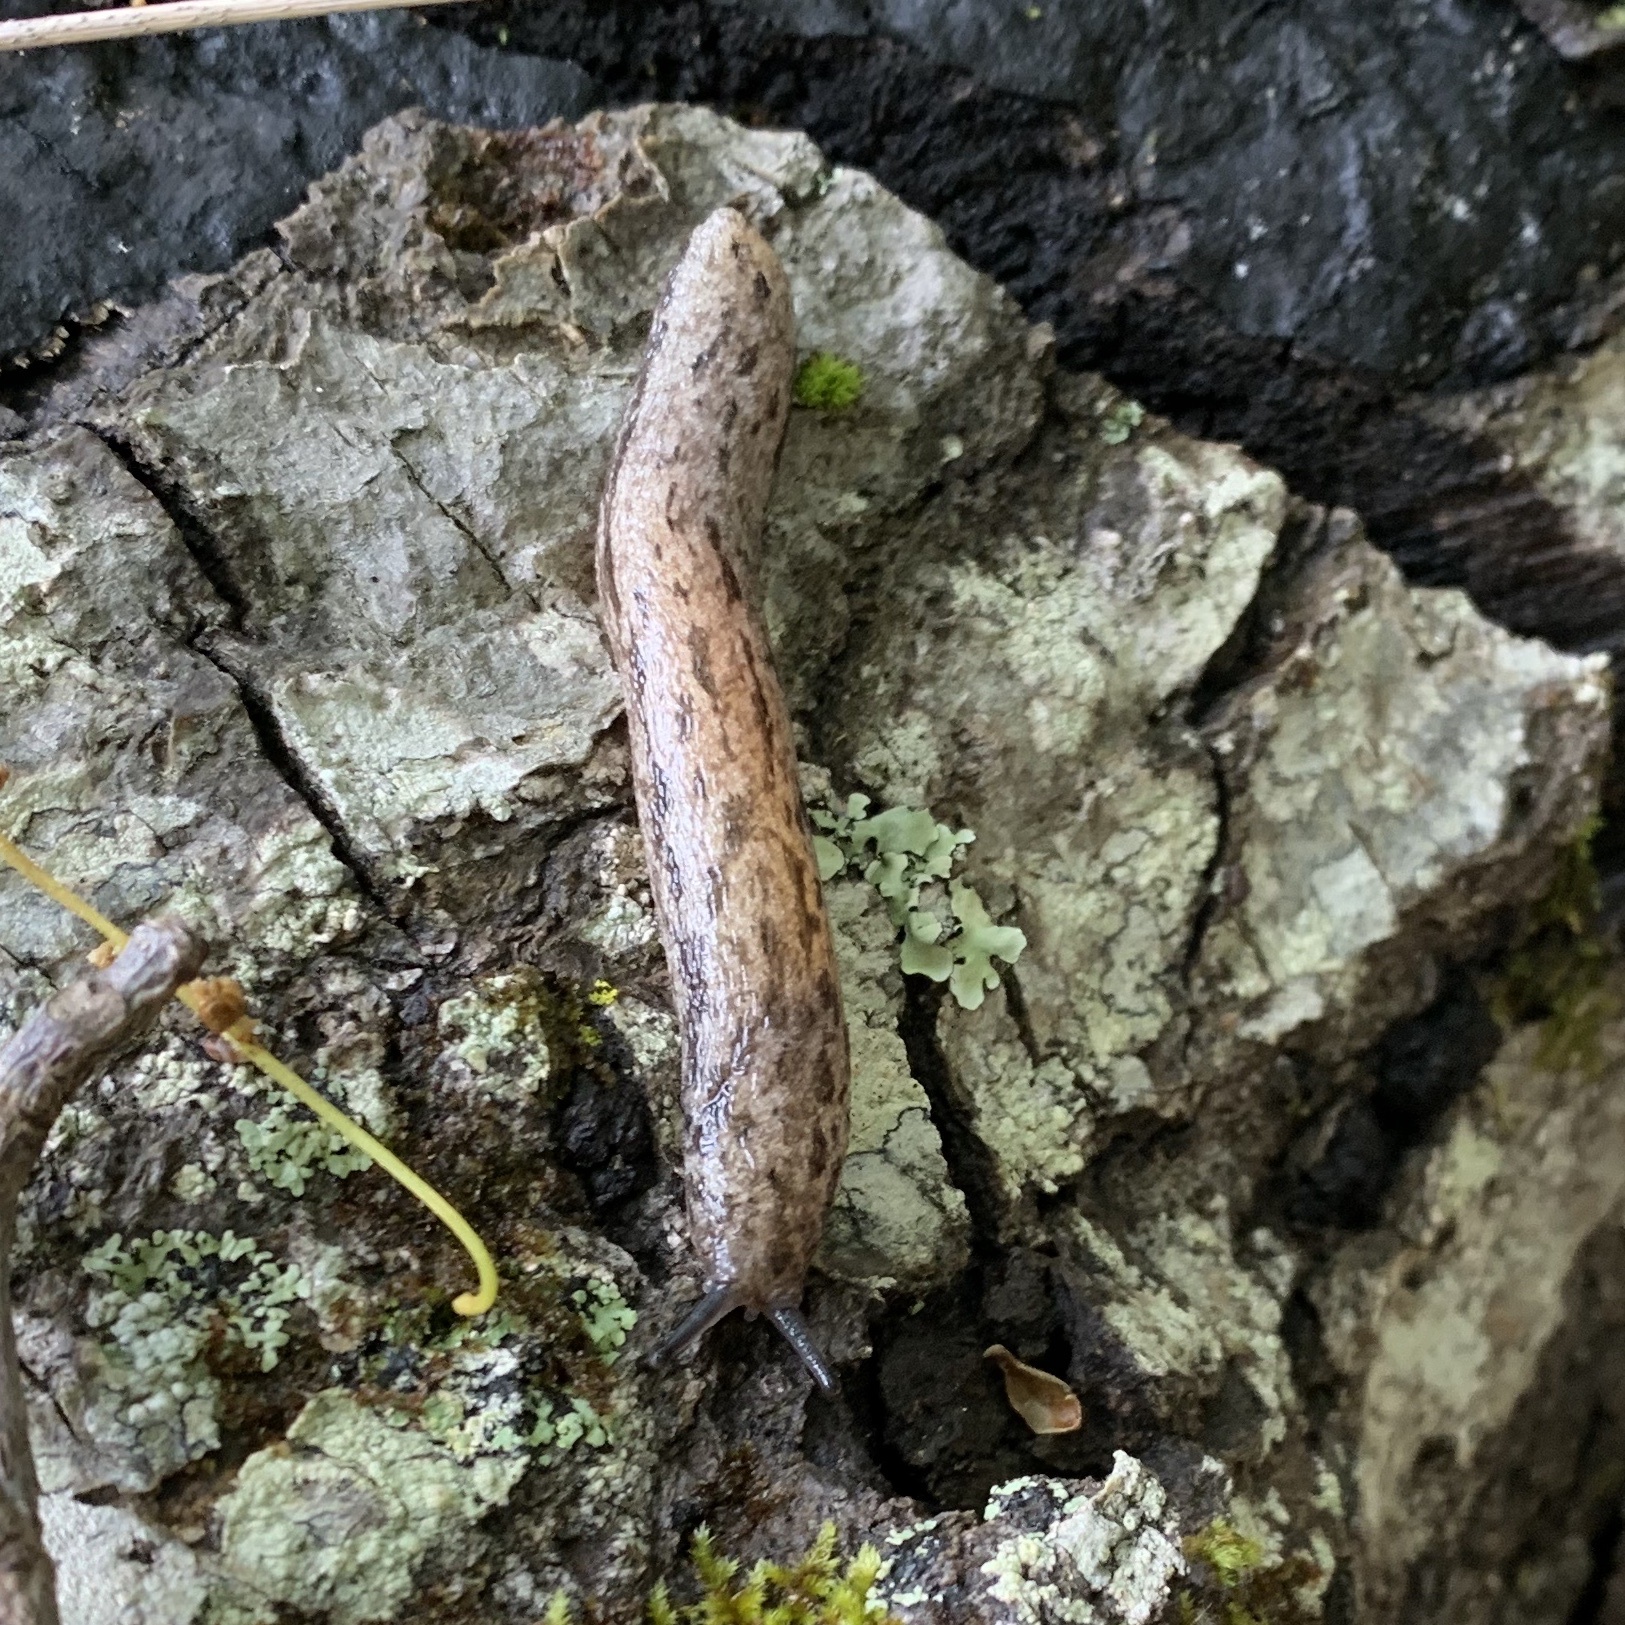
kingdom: Animalia
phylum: Mollusca
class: Gastropoda
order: Stylommatophora
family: Philomycidae
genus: Megapallifera
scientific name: Megapallifera mutabilis
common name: Changeable mantleslug
